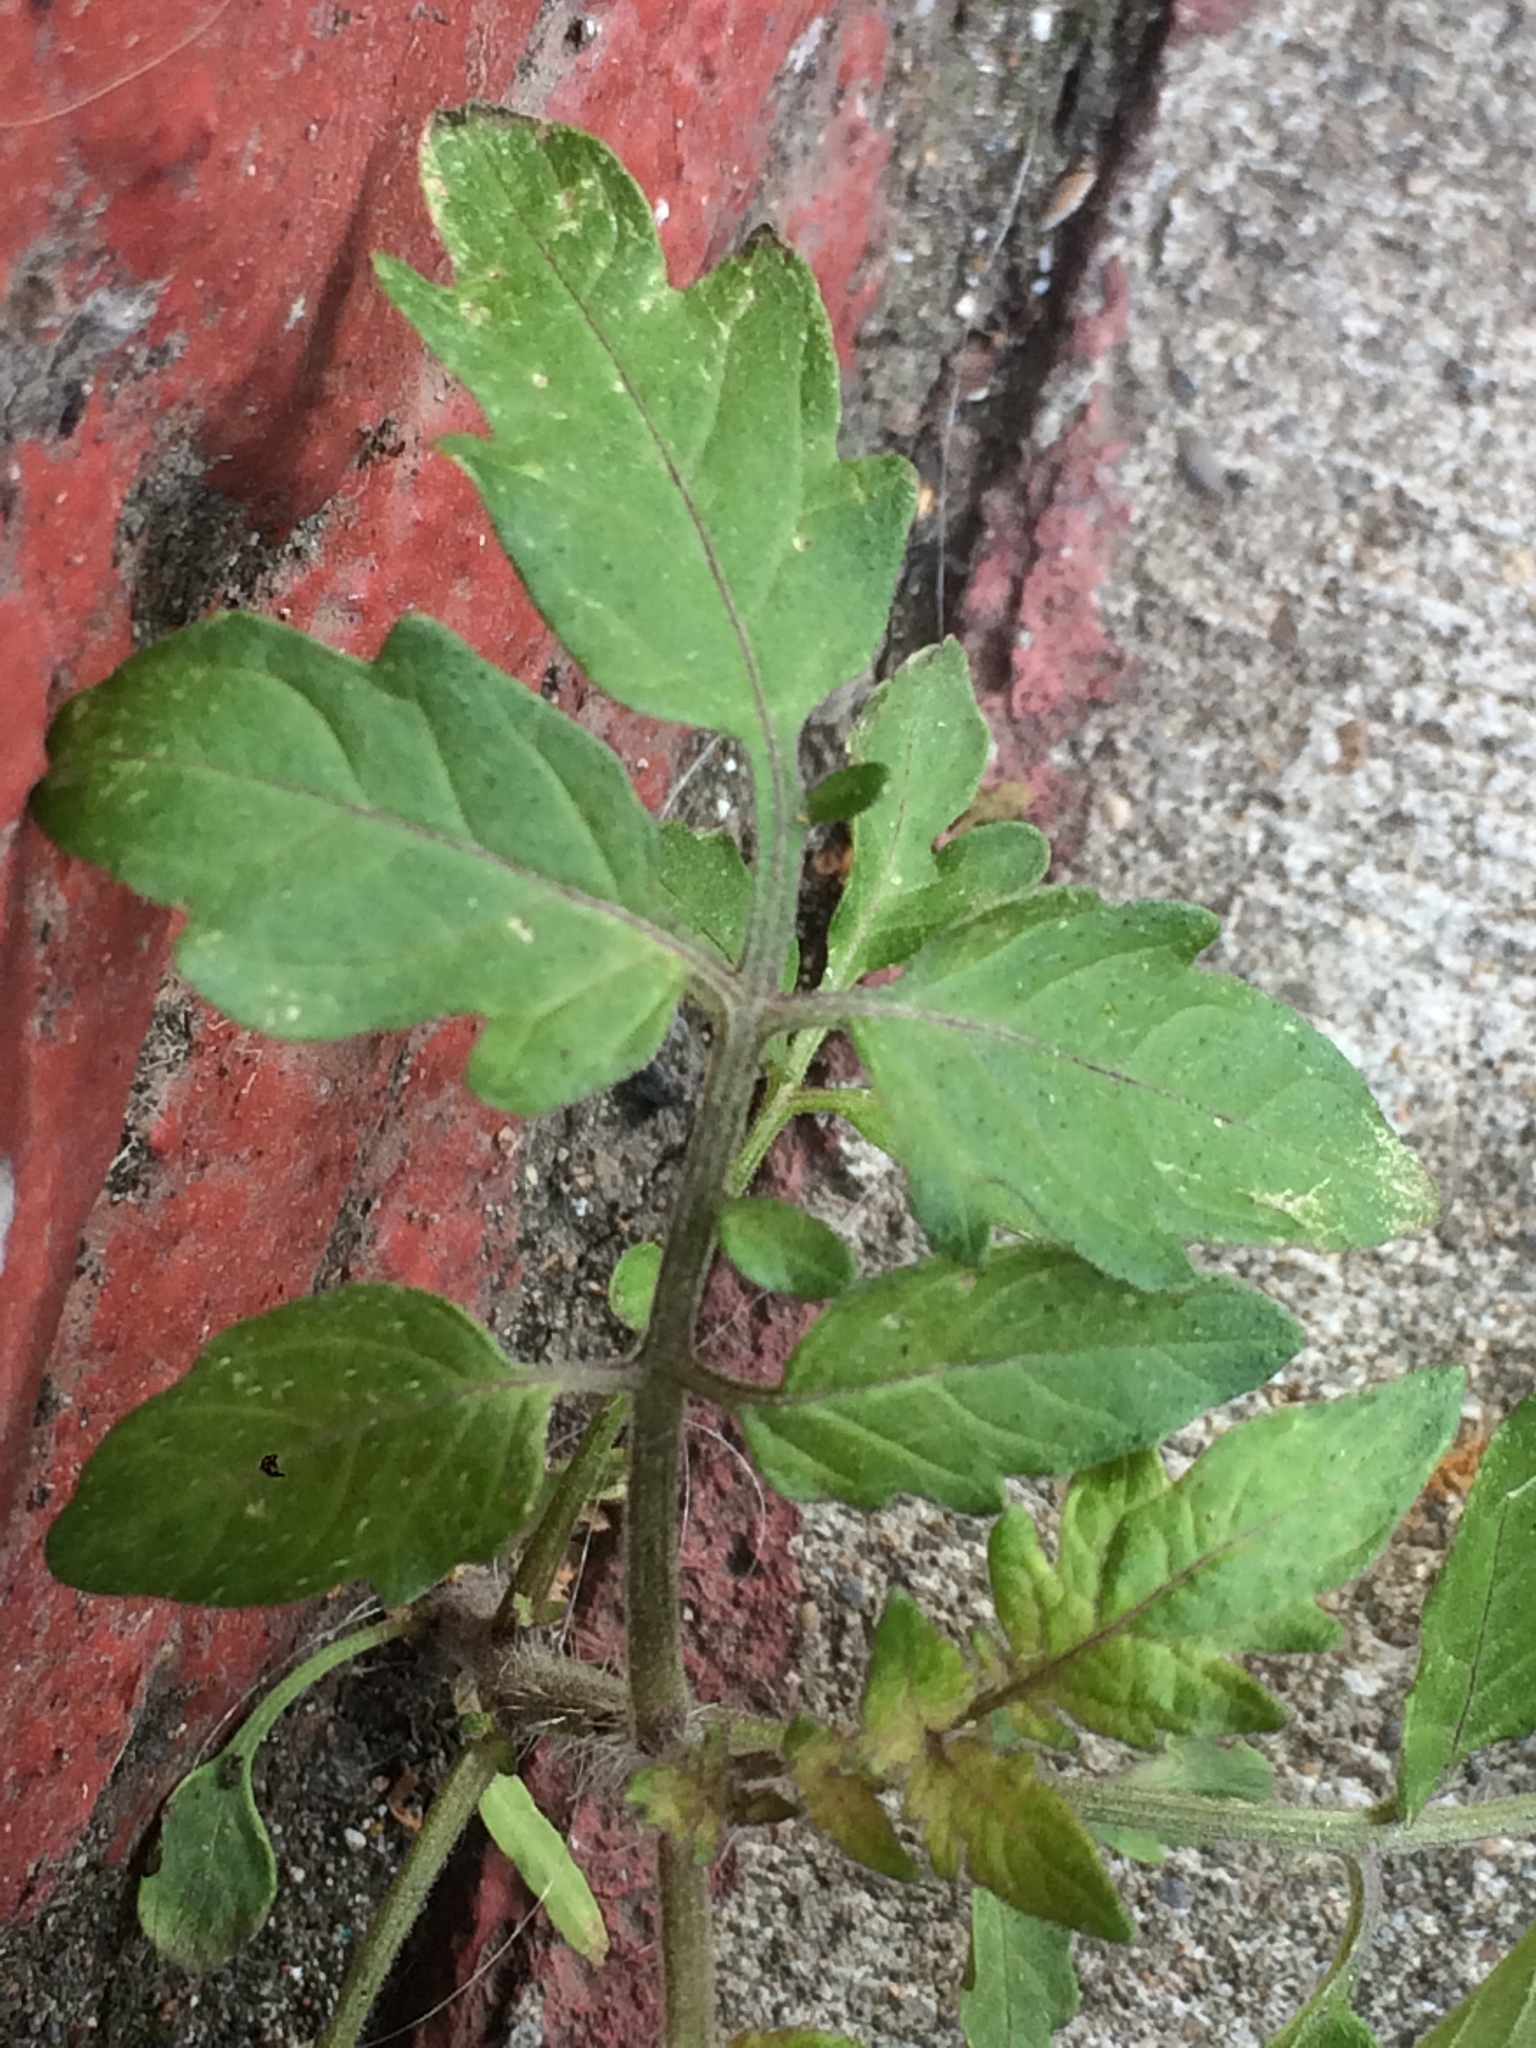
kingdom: Plantae
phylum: Tracheophyta
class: Magnoliopsida
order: Solanales
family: Solanaceae
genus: Solanum
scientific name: Solanum lycopersicum
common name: Garden tomato
